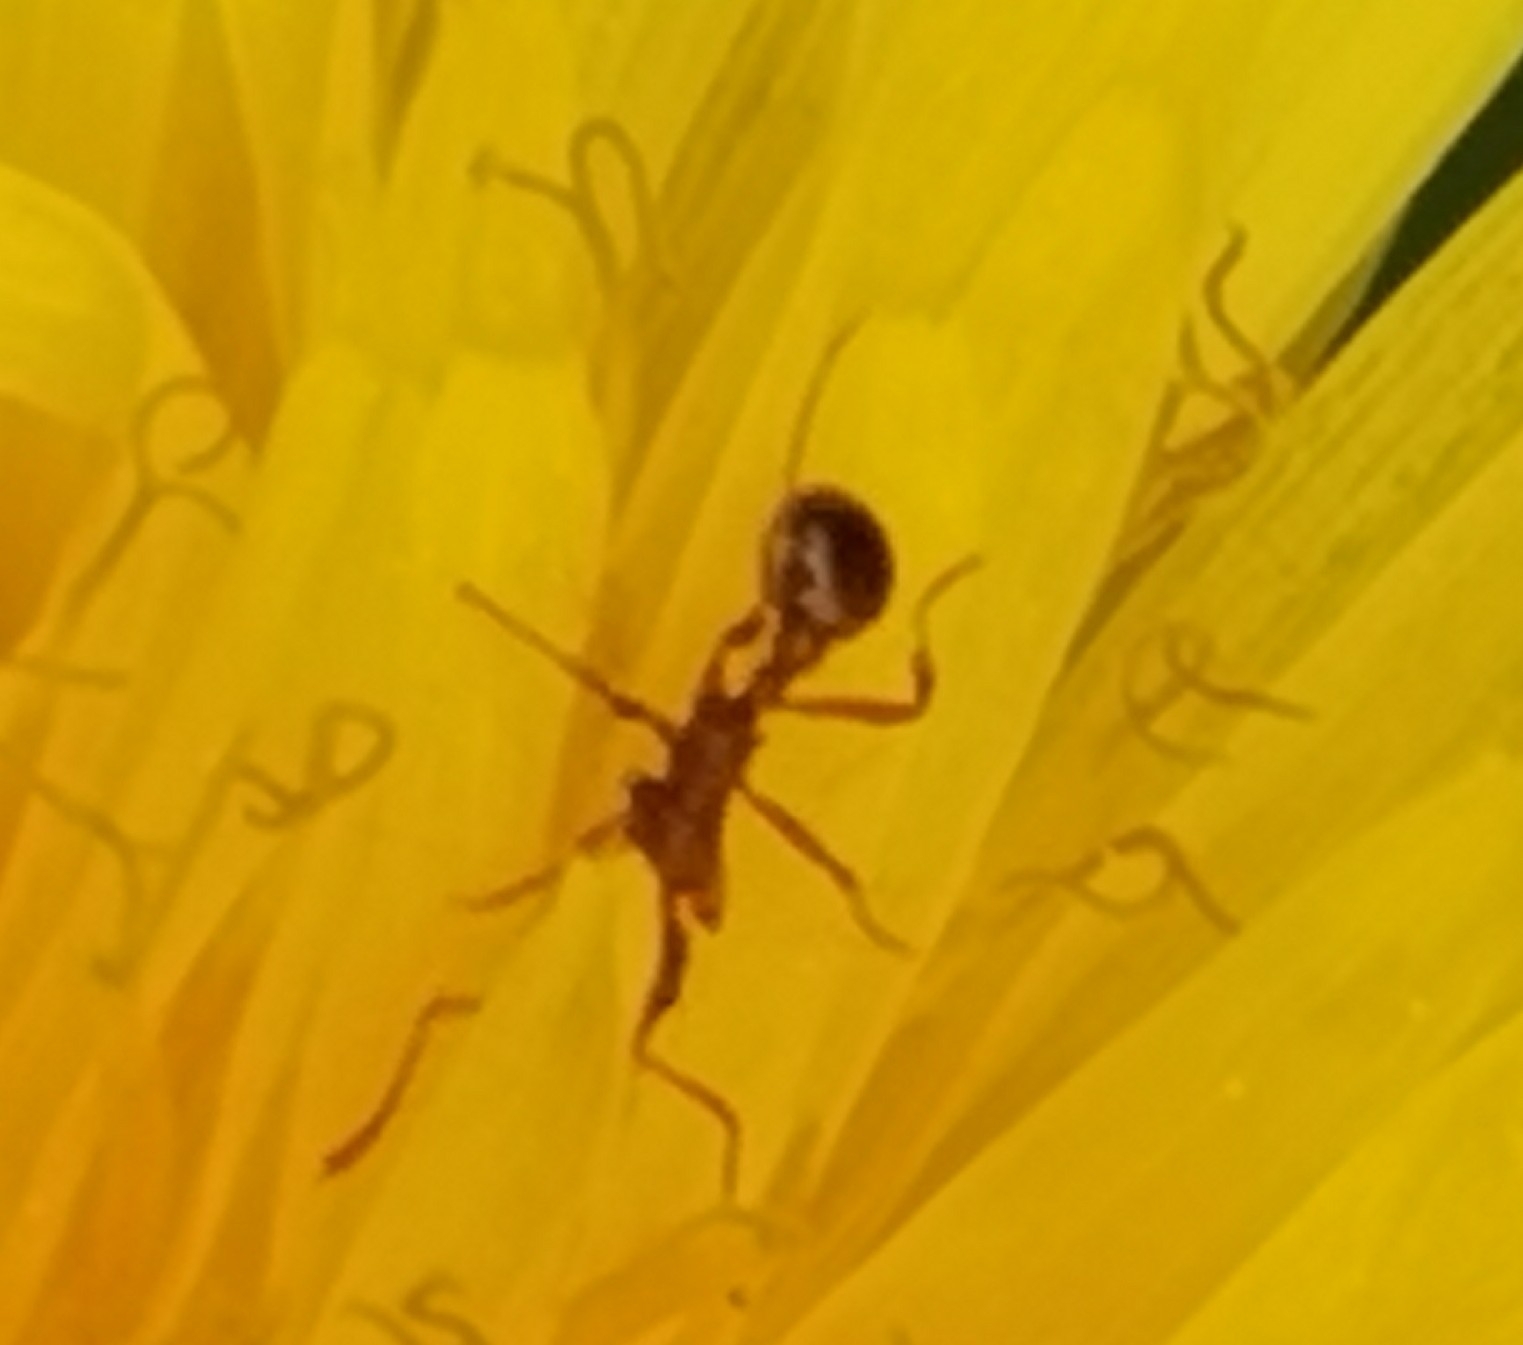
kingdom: Animalia
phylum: Arthropoda
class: Insecta
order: Hymenoptera
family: Formicidae
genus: Myrmica
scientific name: Myrmica rubra
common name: European fire ant
